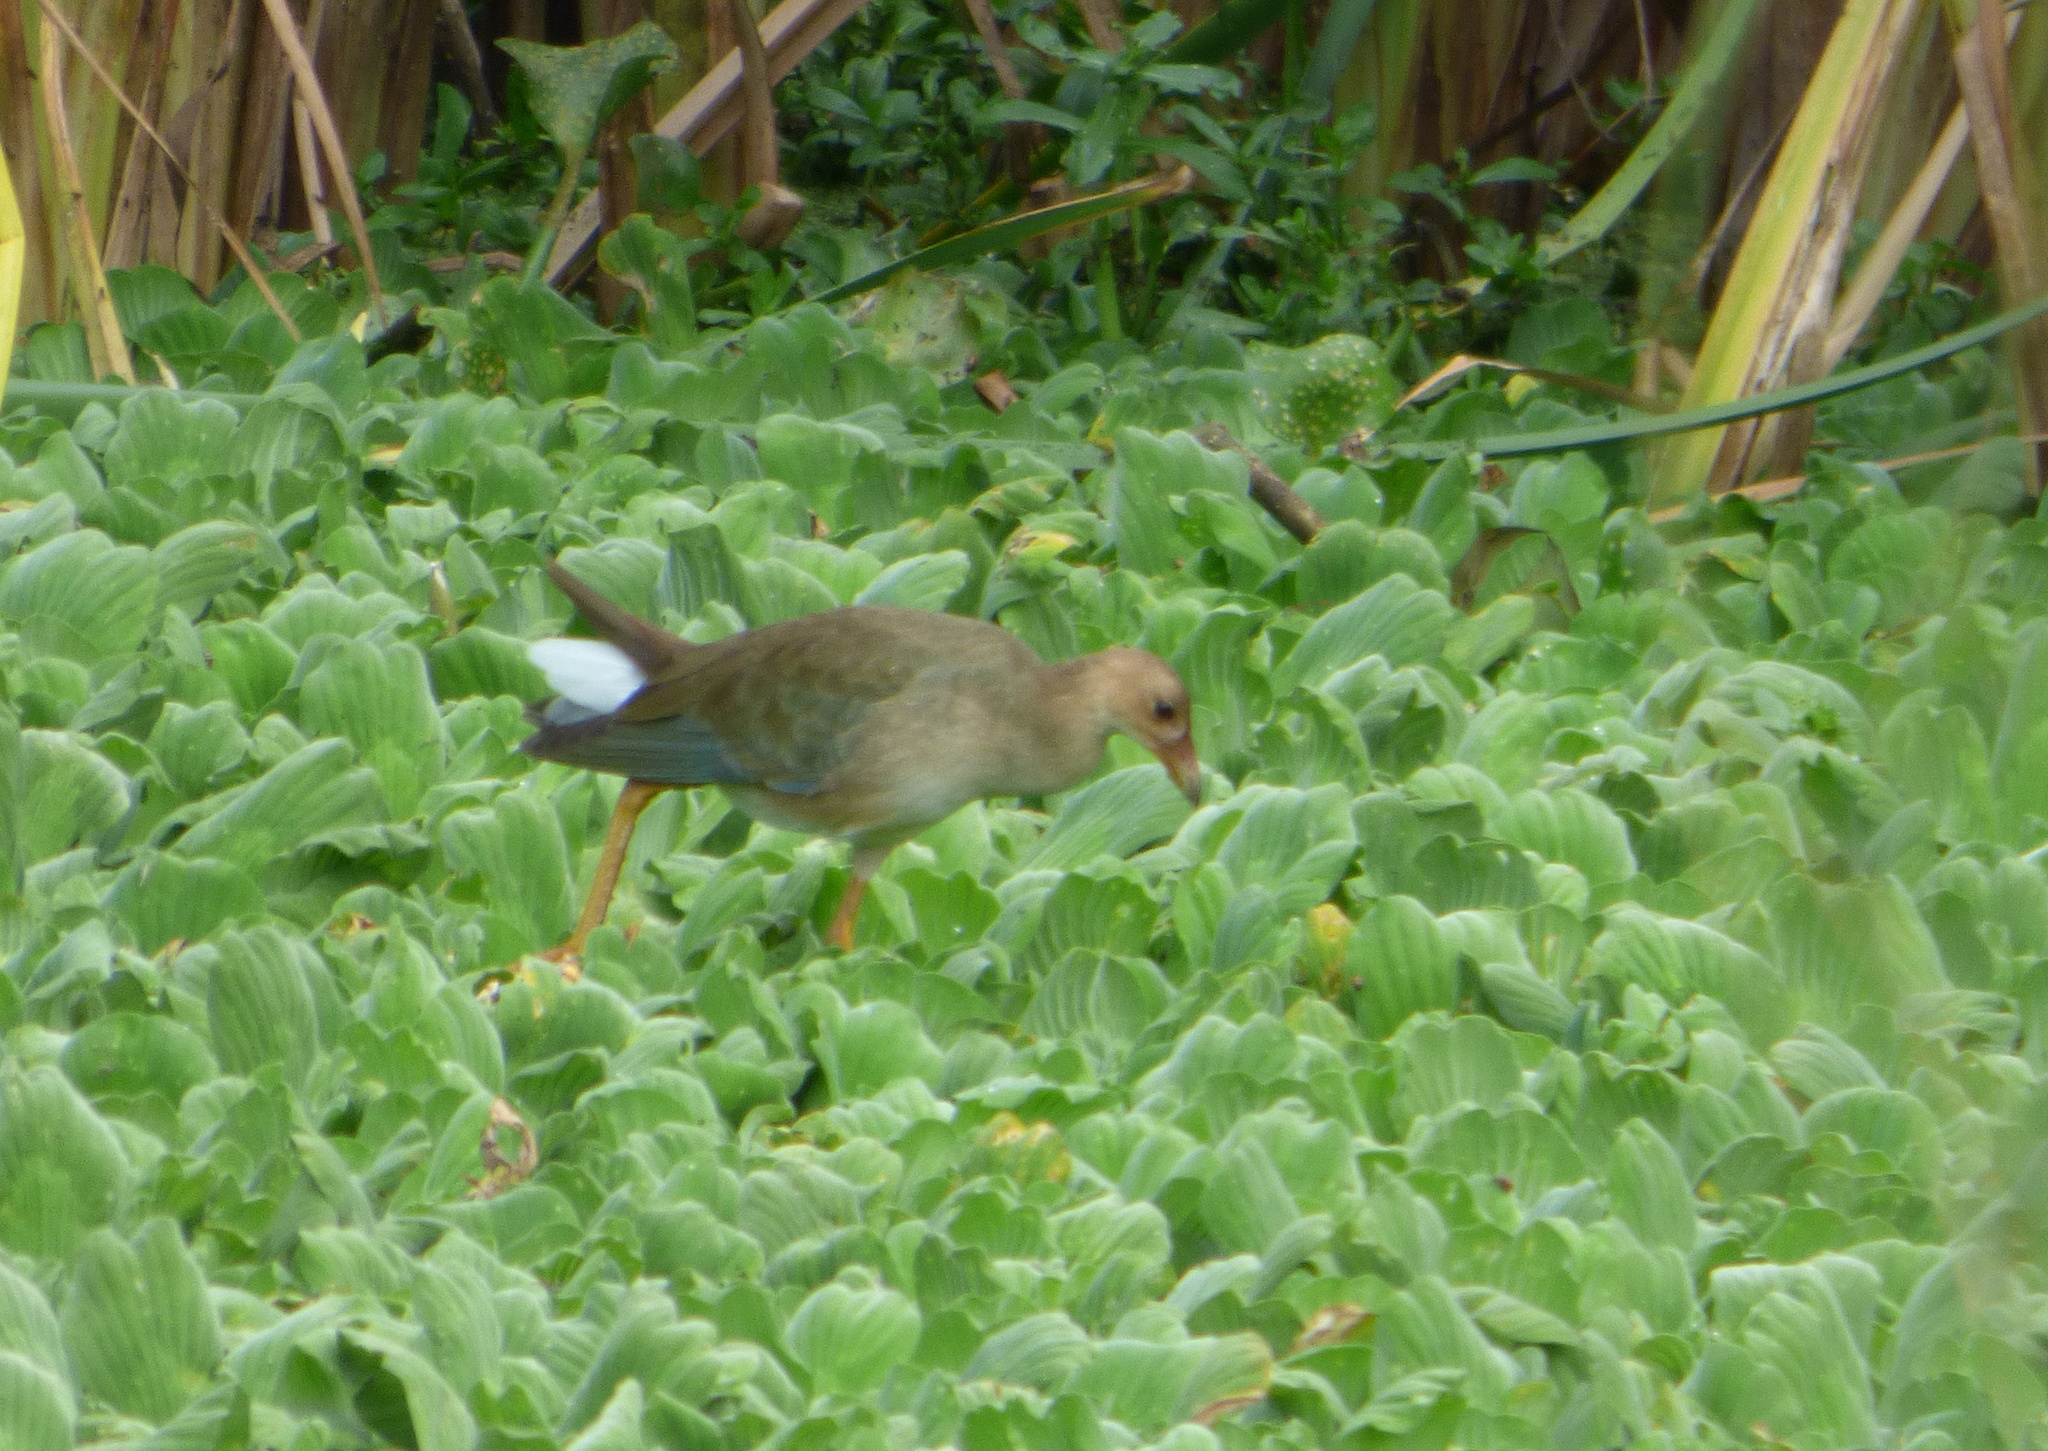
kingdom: Animalia
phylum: Chordata
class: Aves
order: Gruiformes
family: Rallidae
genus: Porphyrio
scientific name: Porphyrio martinica
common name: Purple gallinule
